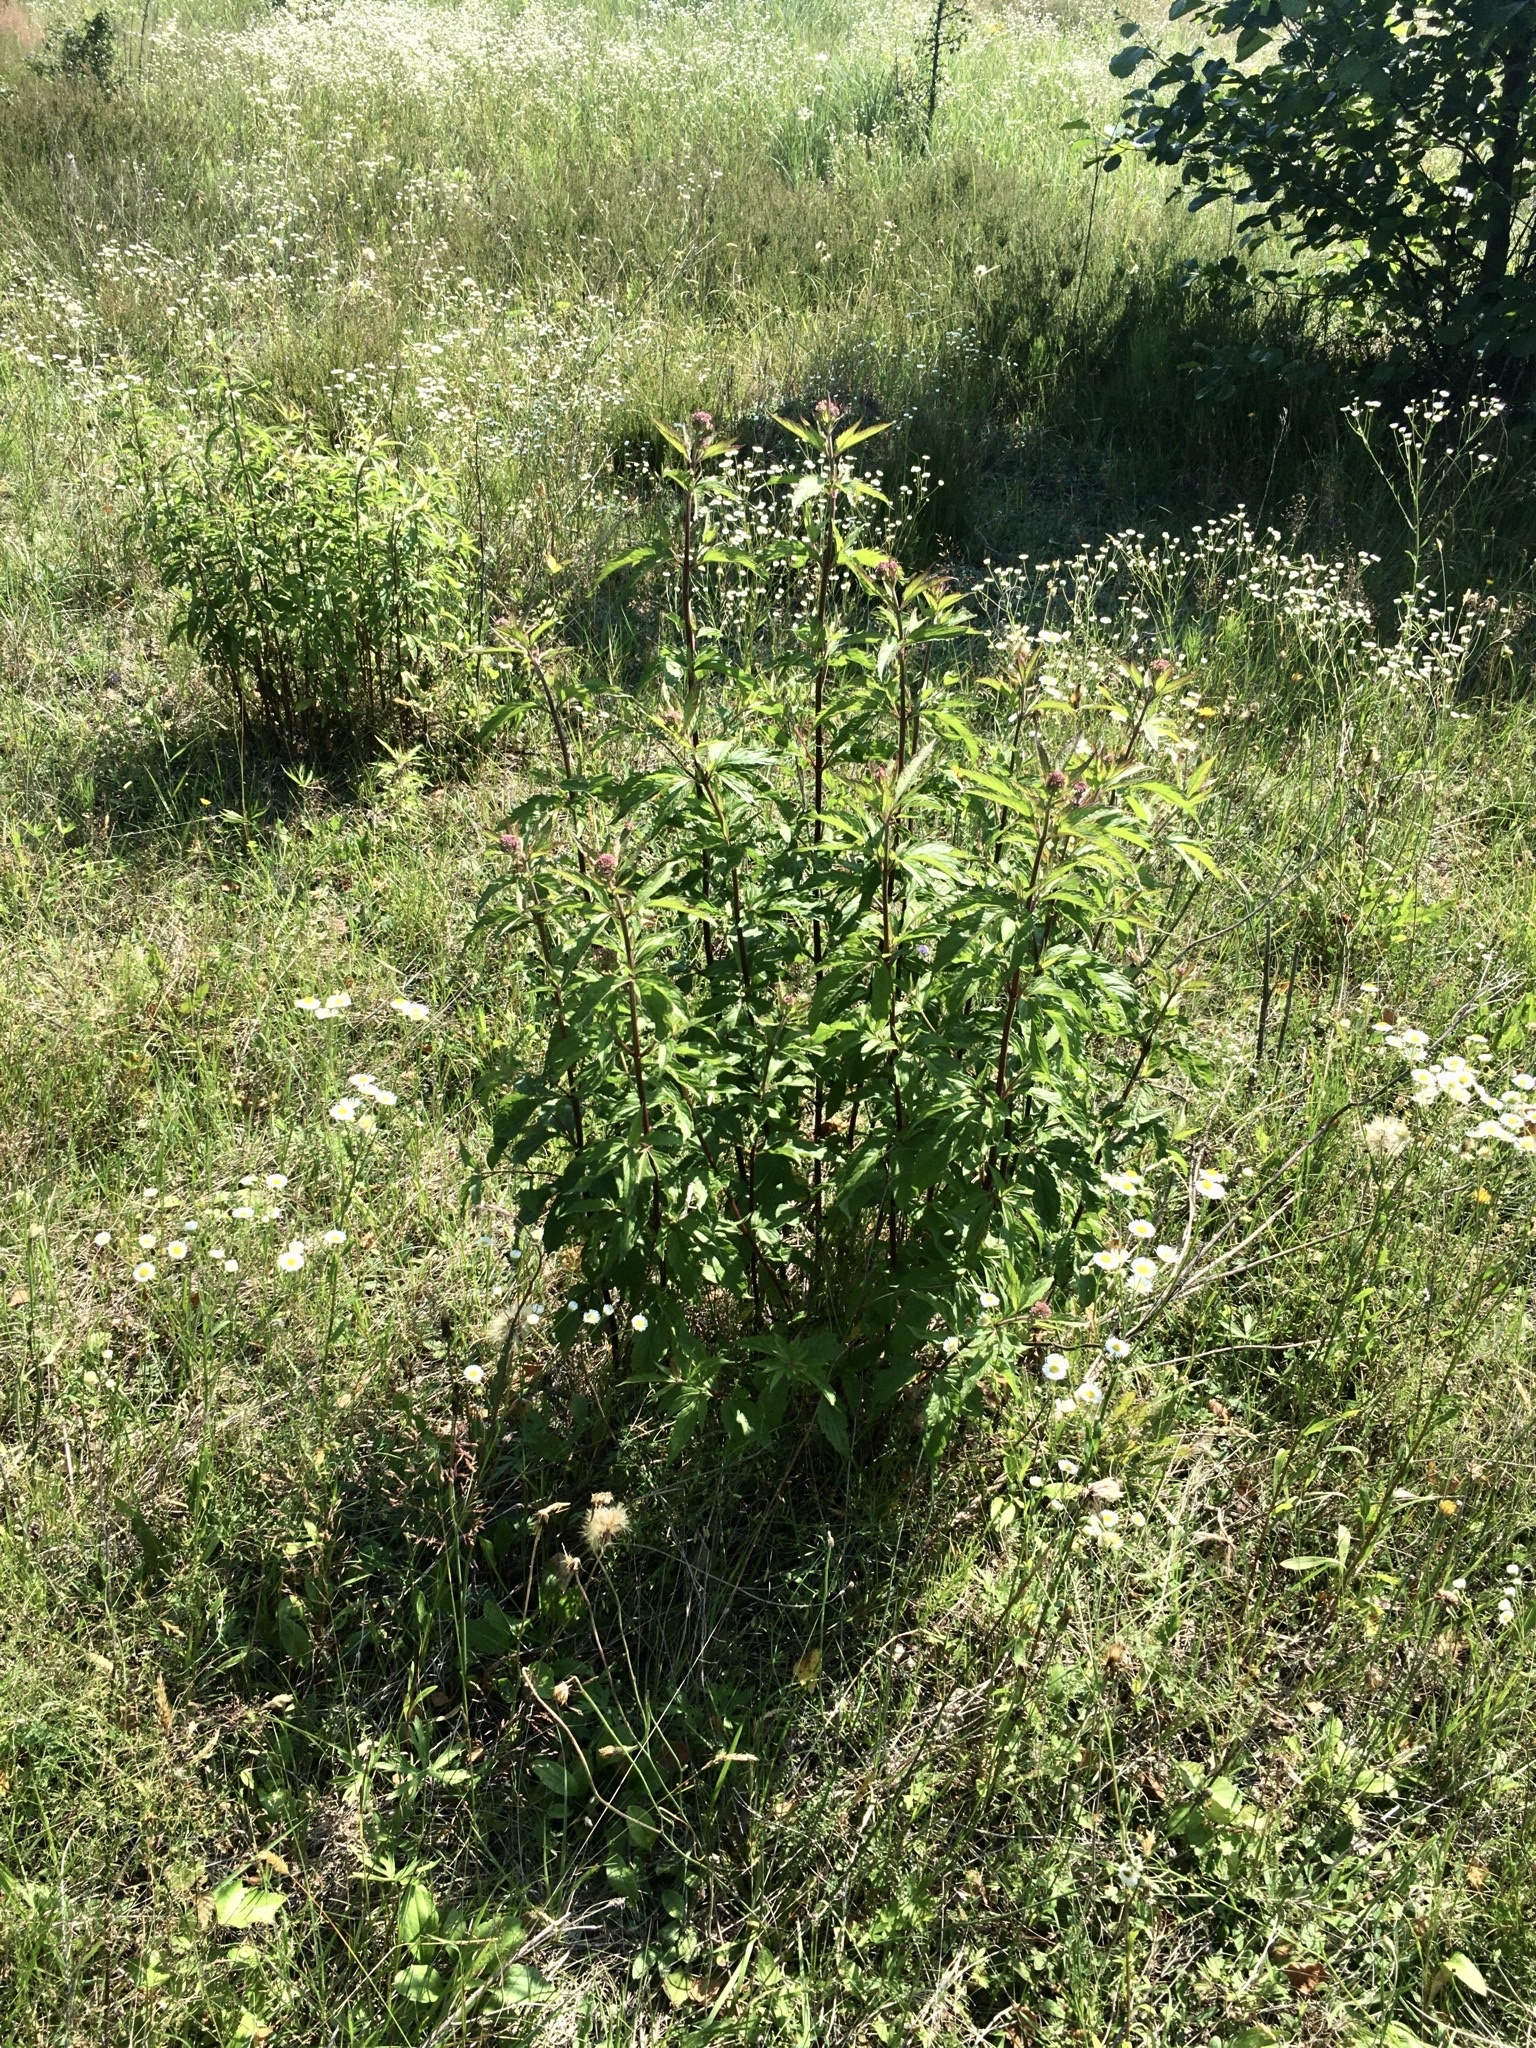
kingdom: Plantae
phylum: Tracheophyta
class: Magnoliopsida
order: Asterales
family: Asteraceae
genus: Eupatorium
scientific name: Eupatorium cannabinum
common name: Hemp-agrimony
